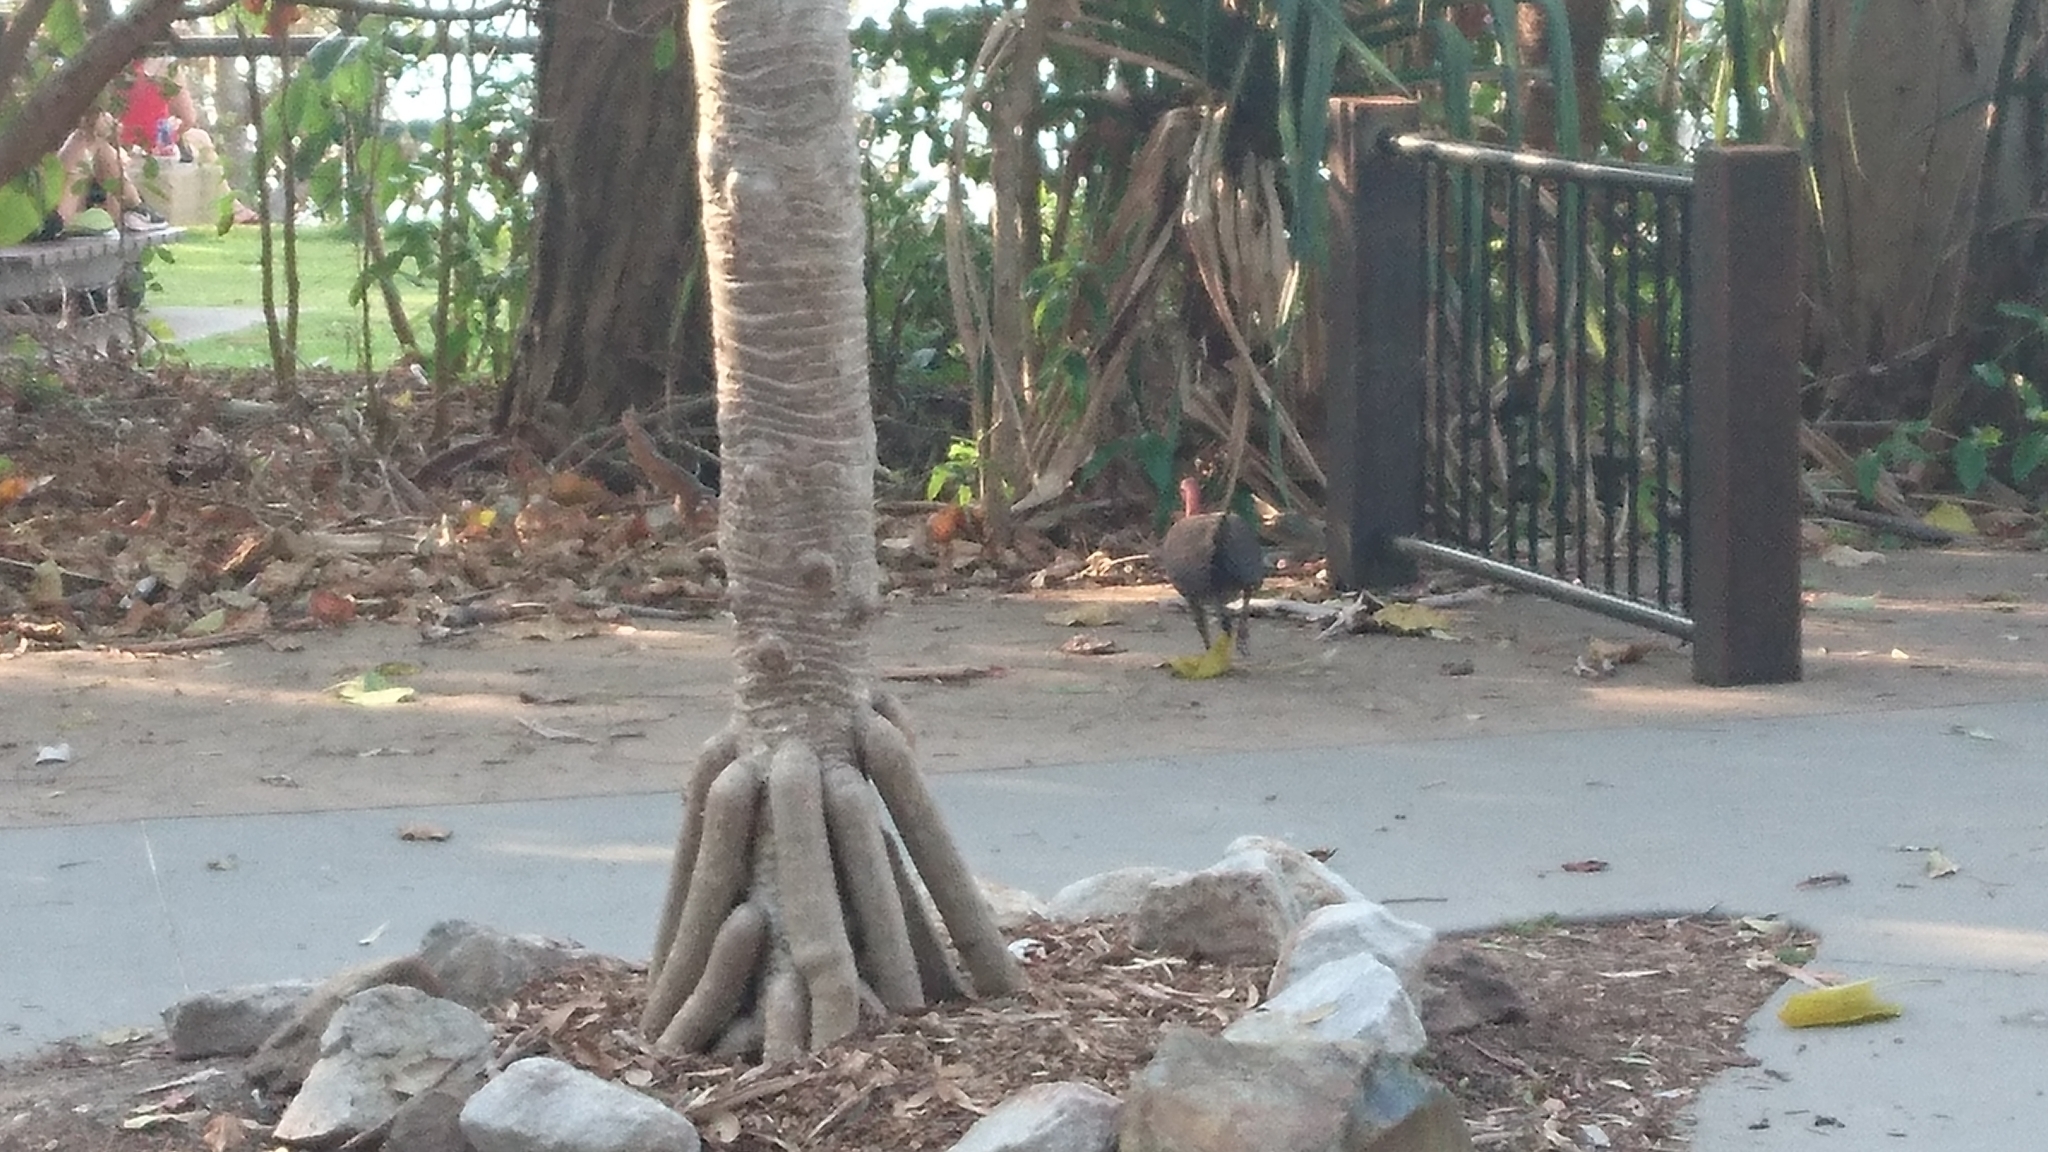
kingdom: Animalia
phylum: Chordata
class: Aves
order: Galliformes
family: Megapodiidae
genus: Alectura
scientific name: Alectura lathami
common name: Australian brushturkey
